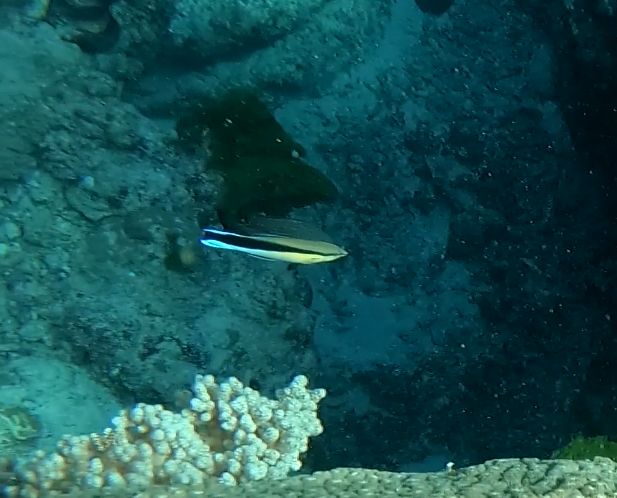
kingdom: Animalia
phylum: Chordata
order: Perciformes
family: Labridae
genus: Labroides
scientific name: Labroides dimidiatus
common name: Blue diesel wrasse
